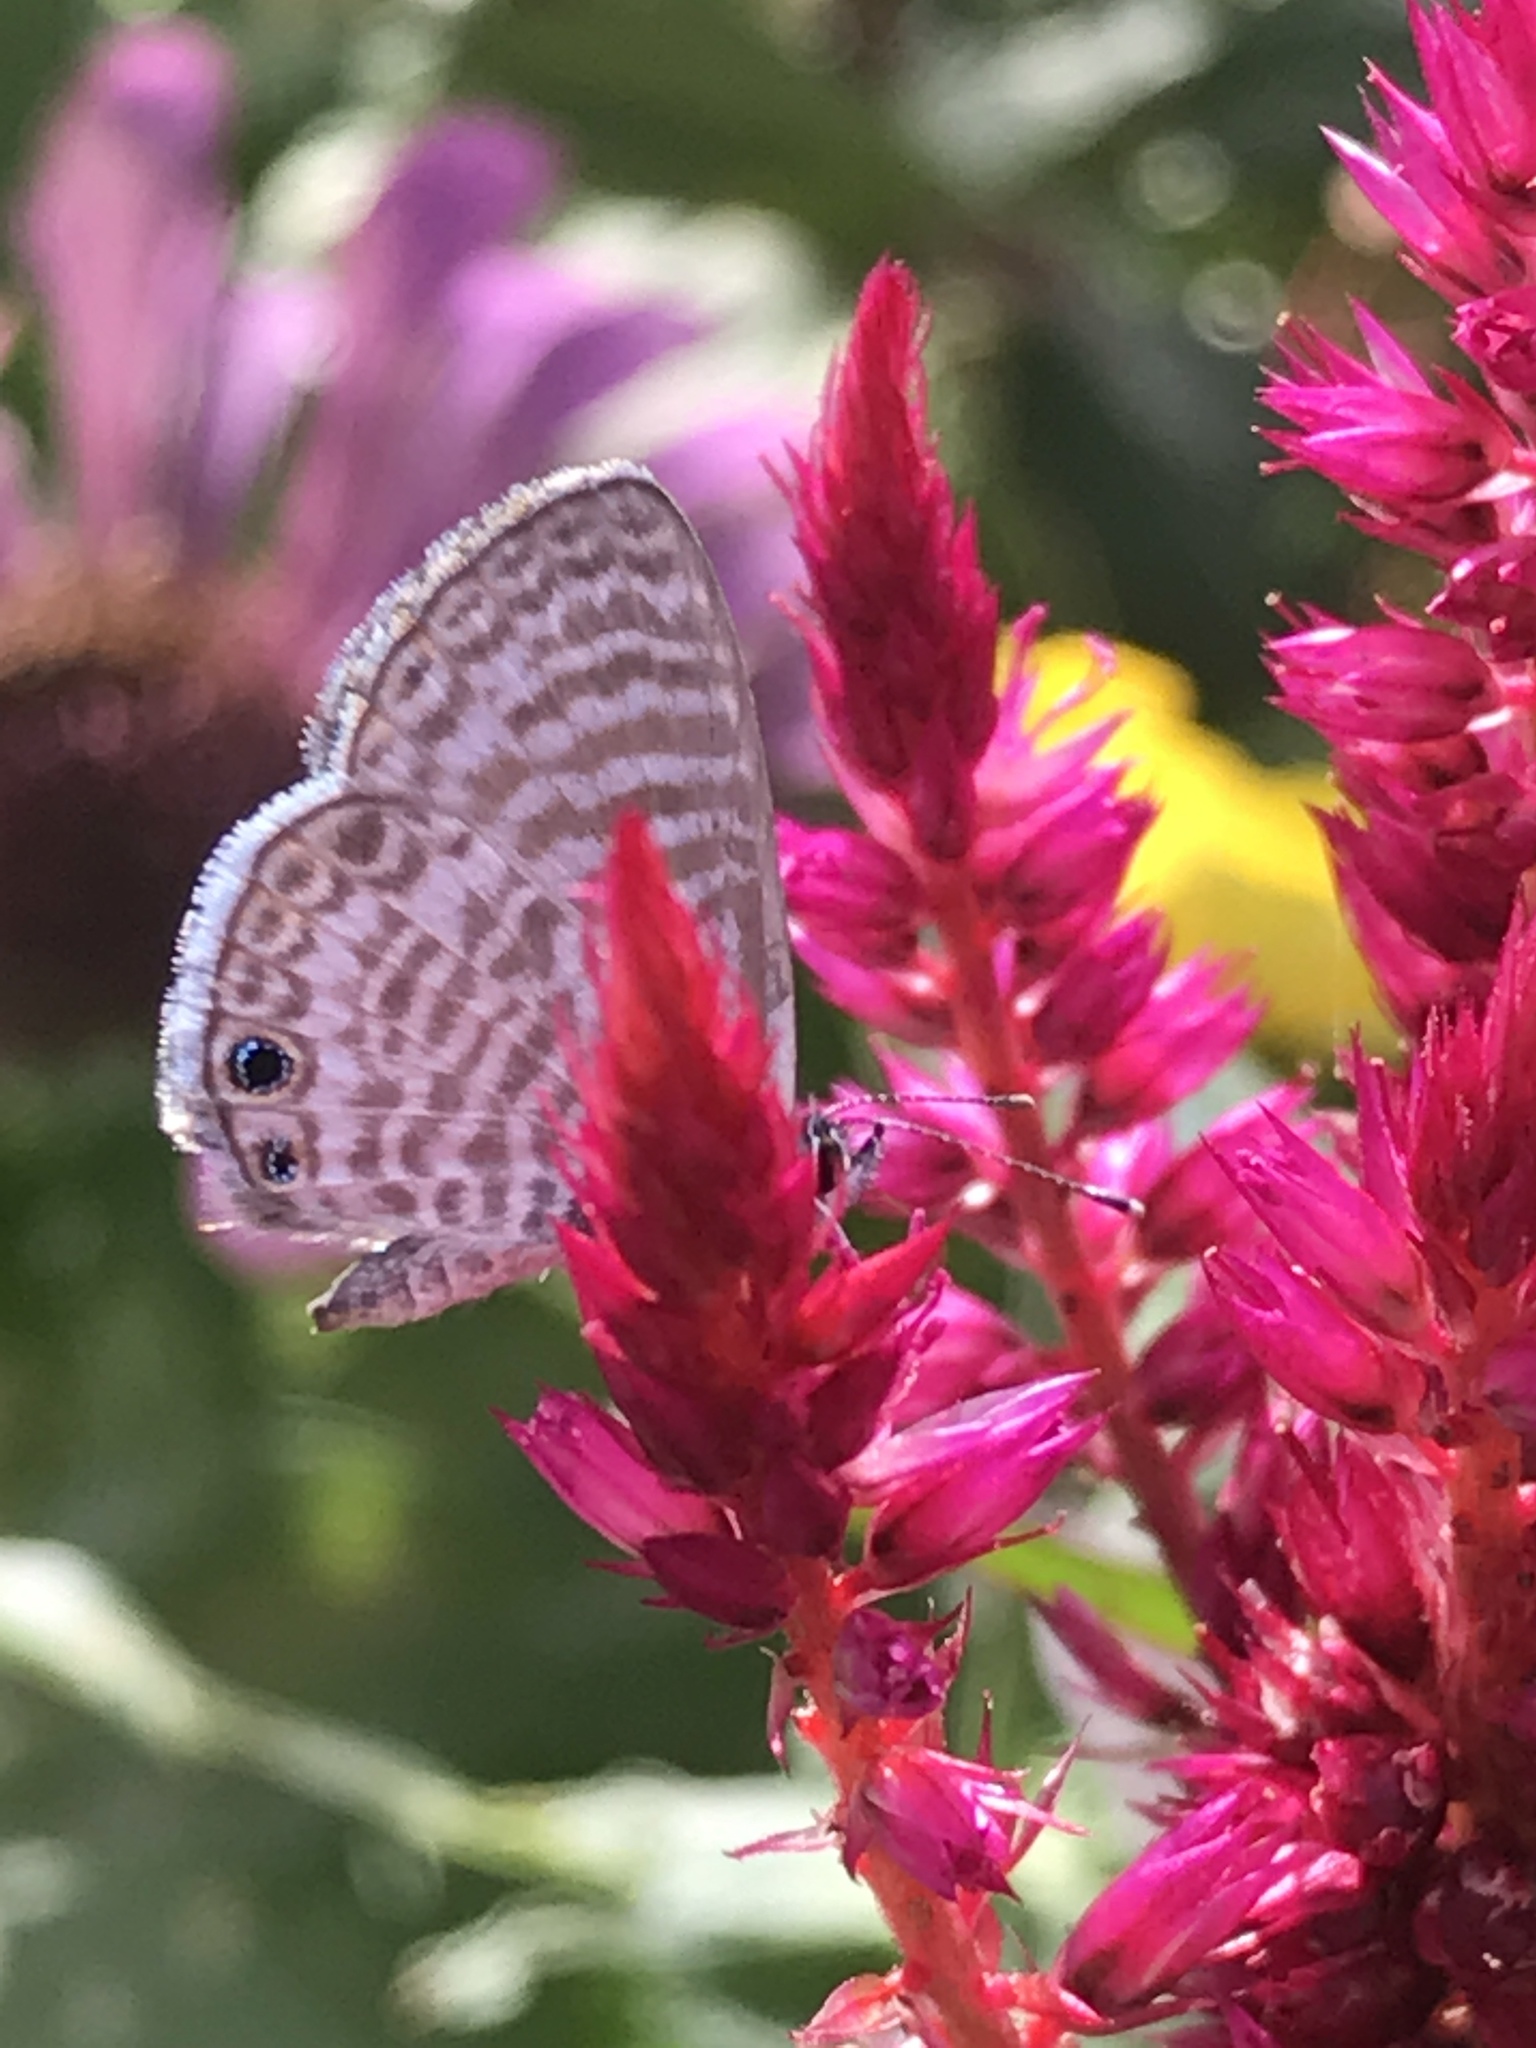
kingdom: Animalia
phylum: Arthropoda
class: Insecta
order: Lepidoptera
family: Lycaenidae
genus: Leptotes
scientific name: Leptotes marina
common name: Marine blue
